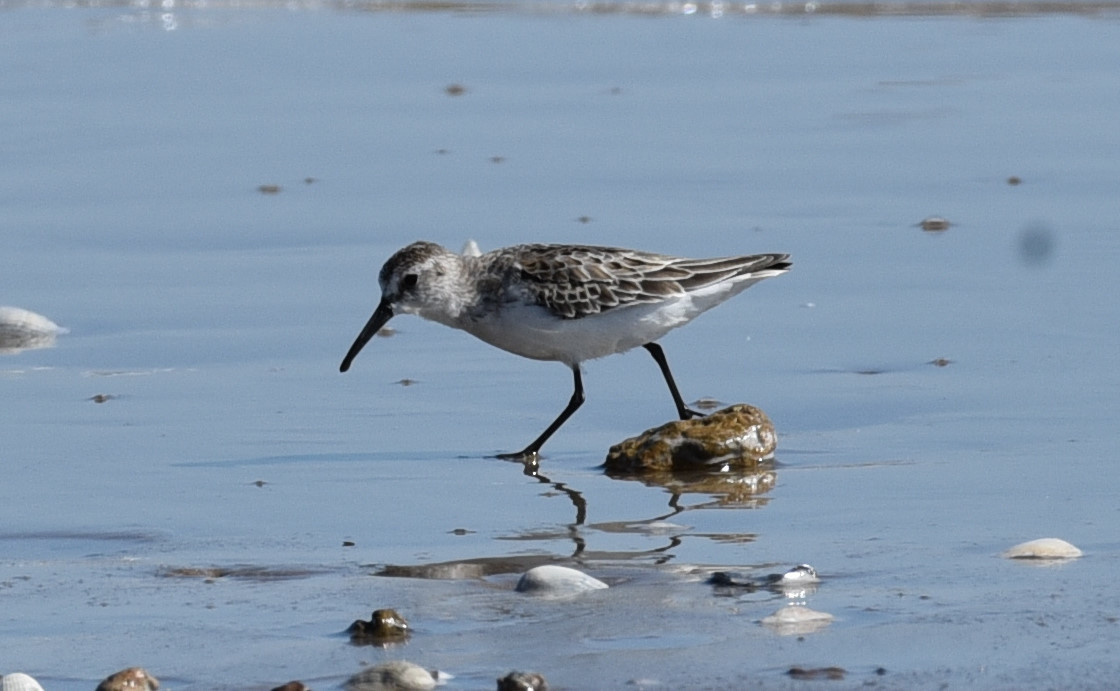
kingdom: Animalia
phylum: Chordata
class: Aves
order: Charadriiformes
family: Scolopacidae
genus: Calidris
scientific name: Calidris mauri
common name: Western sandpiper
